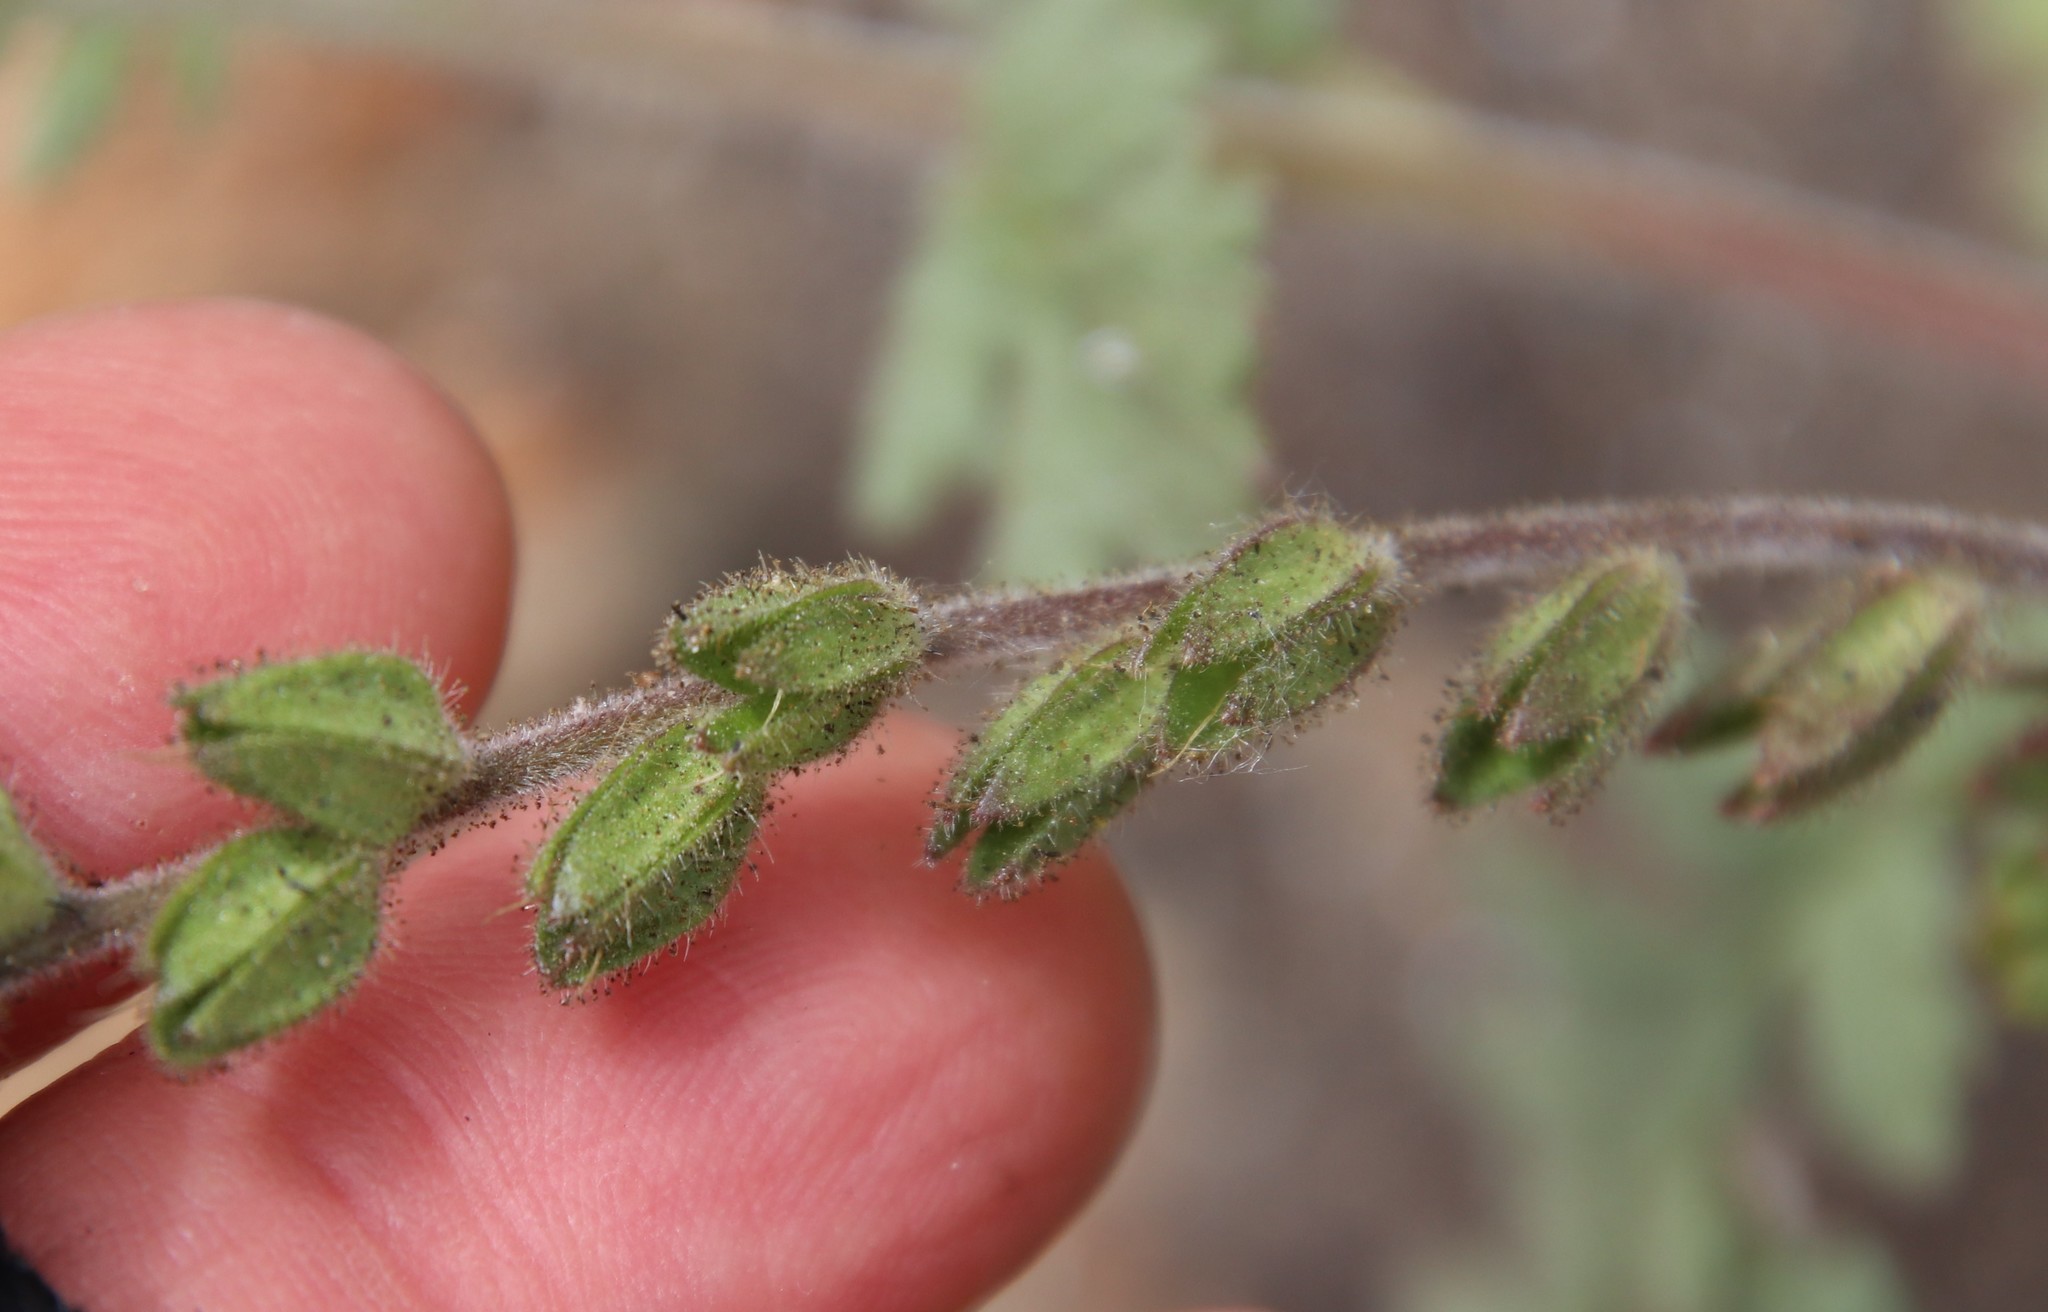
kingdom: Plantae
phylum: Tracheophyta
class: Magnoliopsida
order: Boraginales
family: Hydrophyllaceae
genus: Phacelia
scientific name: Phacelia ciliata
